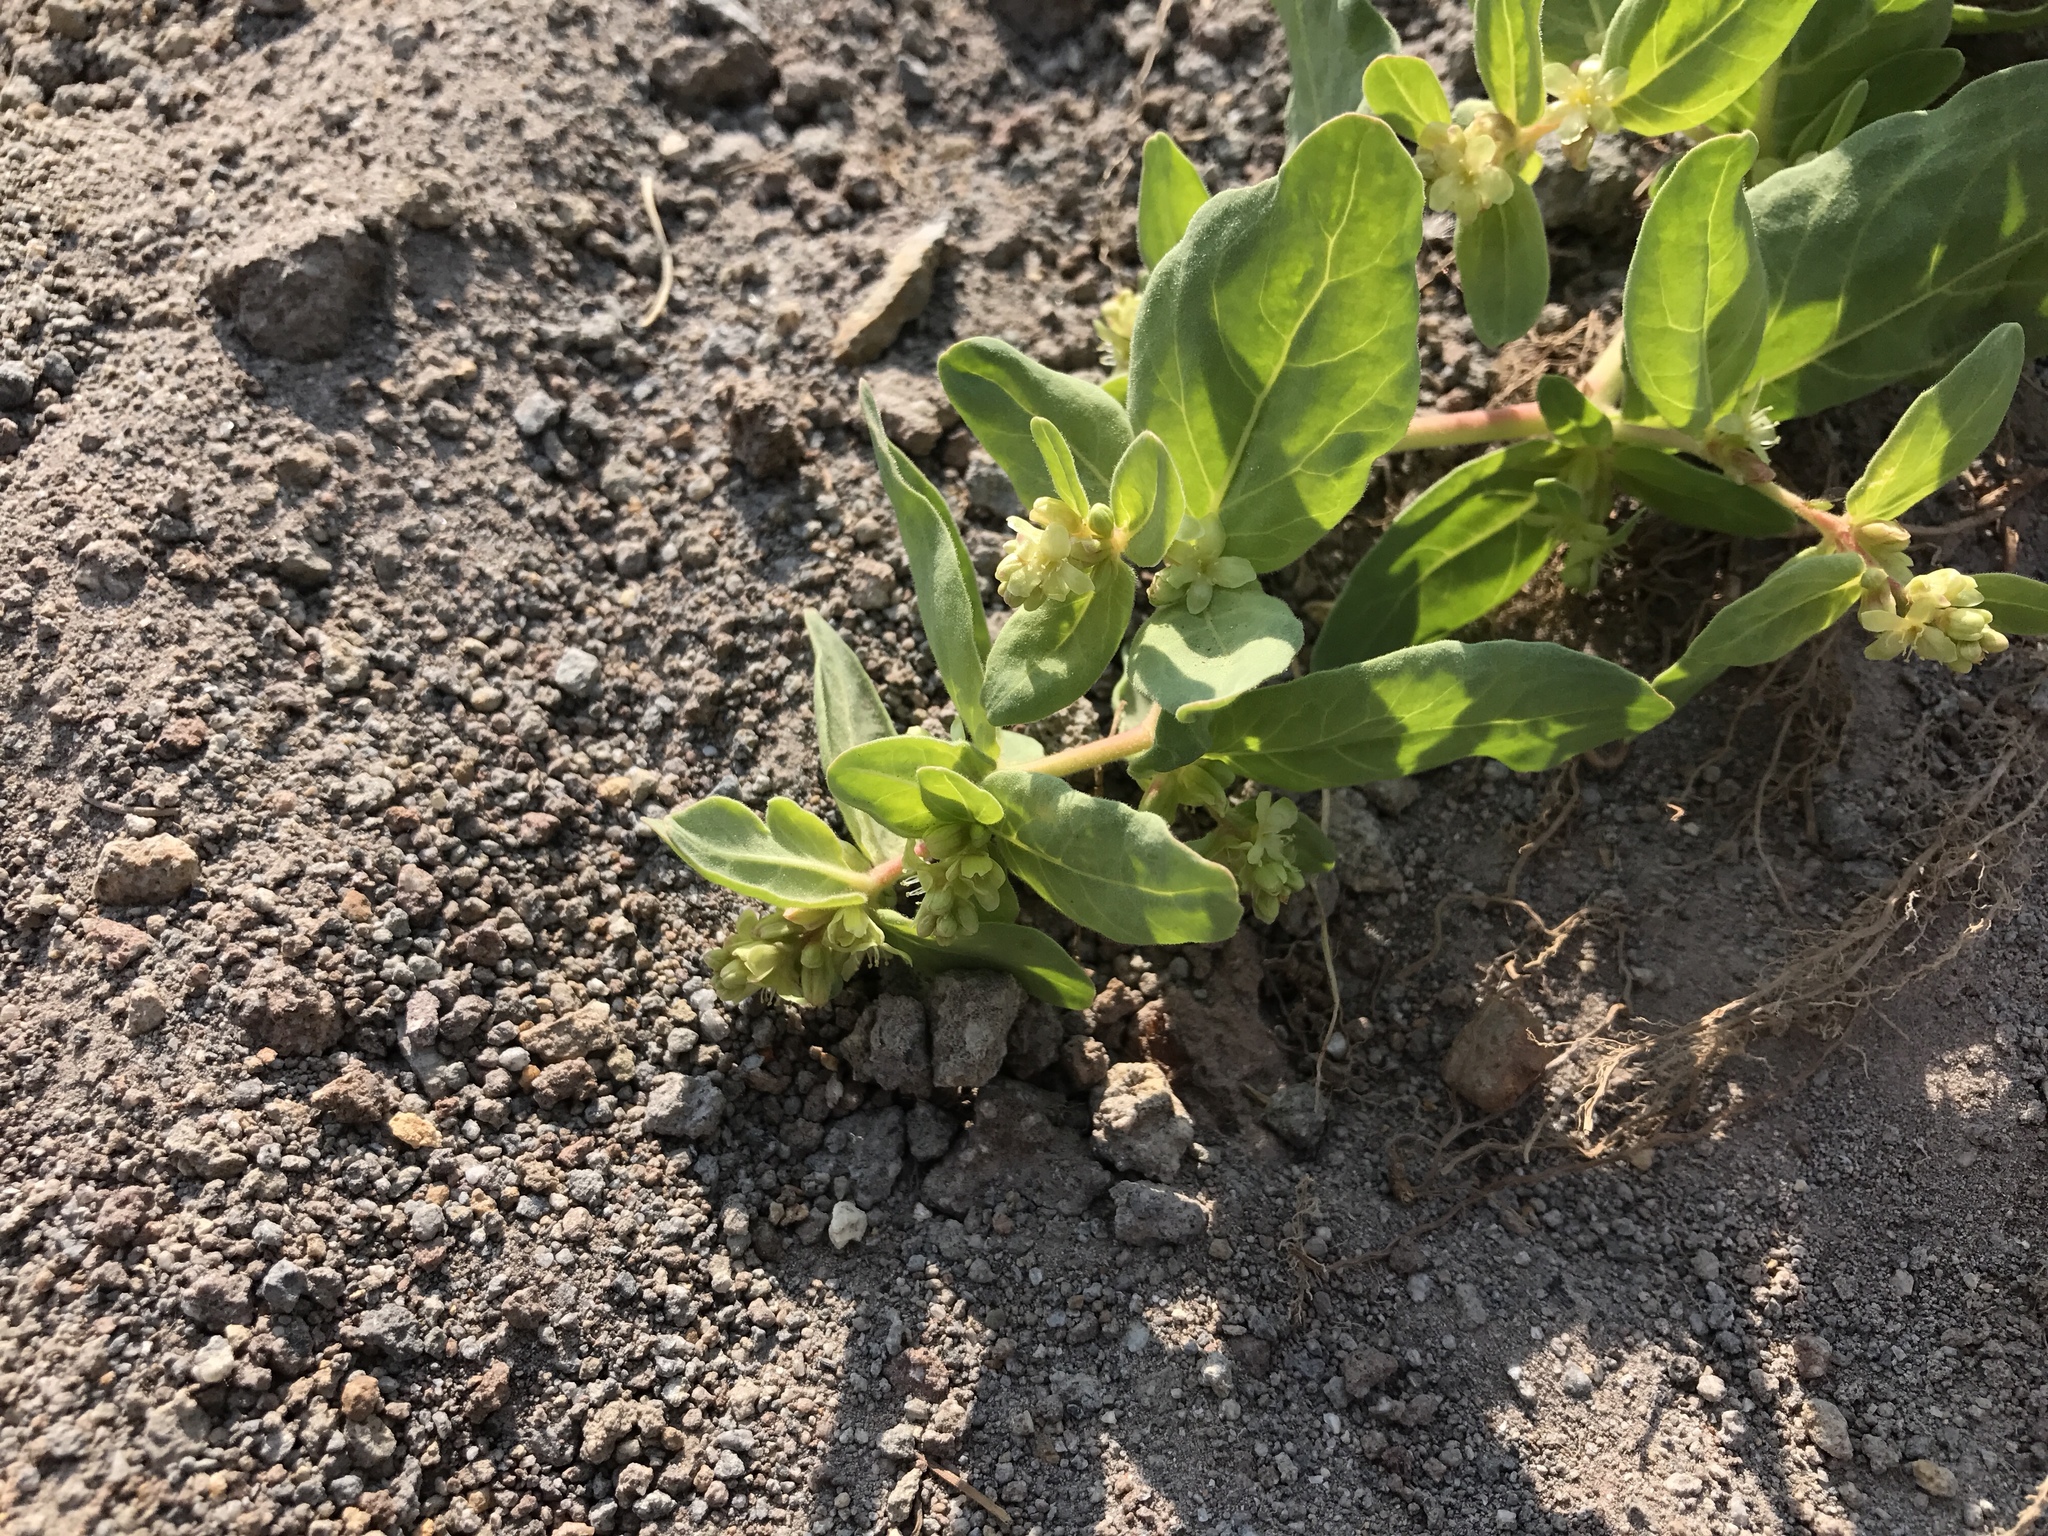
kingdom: Plantae
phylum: Tracheophyta
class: Magnoliopsida
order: Caryophyllales
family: Polygonaceae
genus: Koenigia
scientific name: Koenigia davisiae
